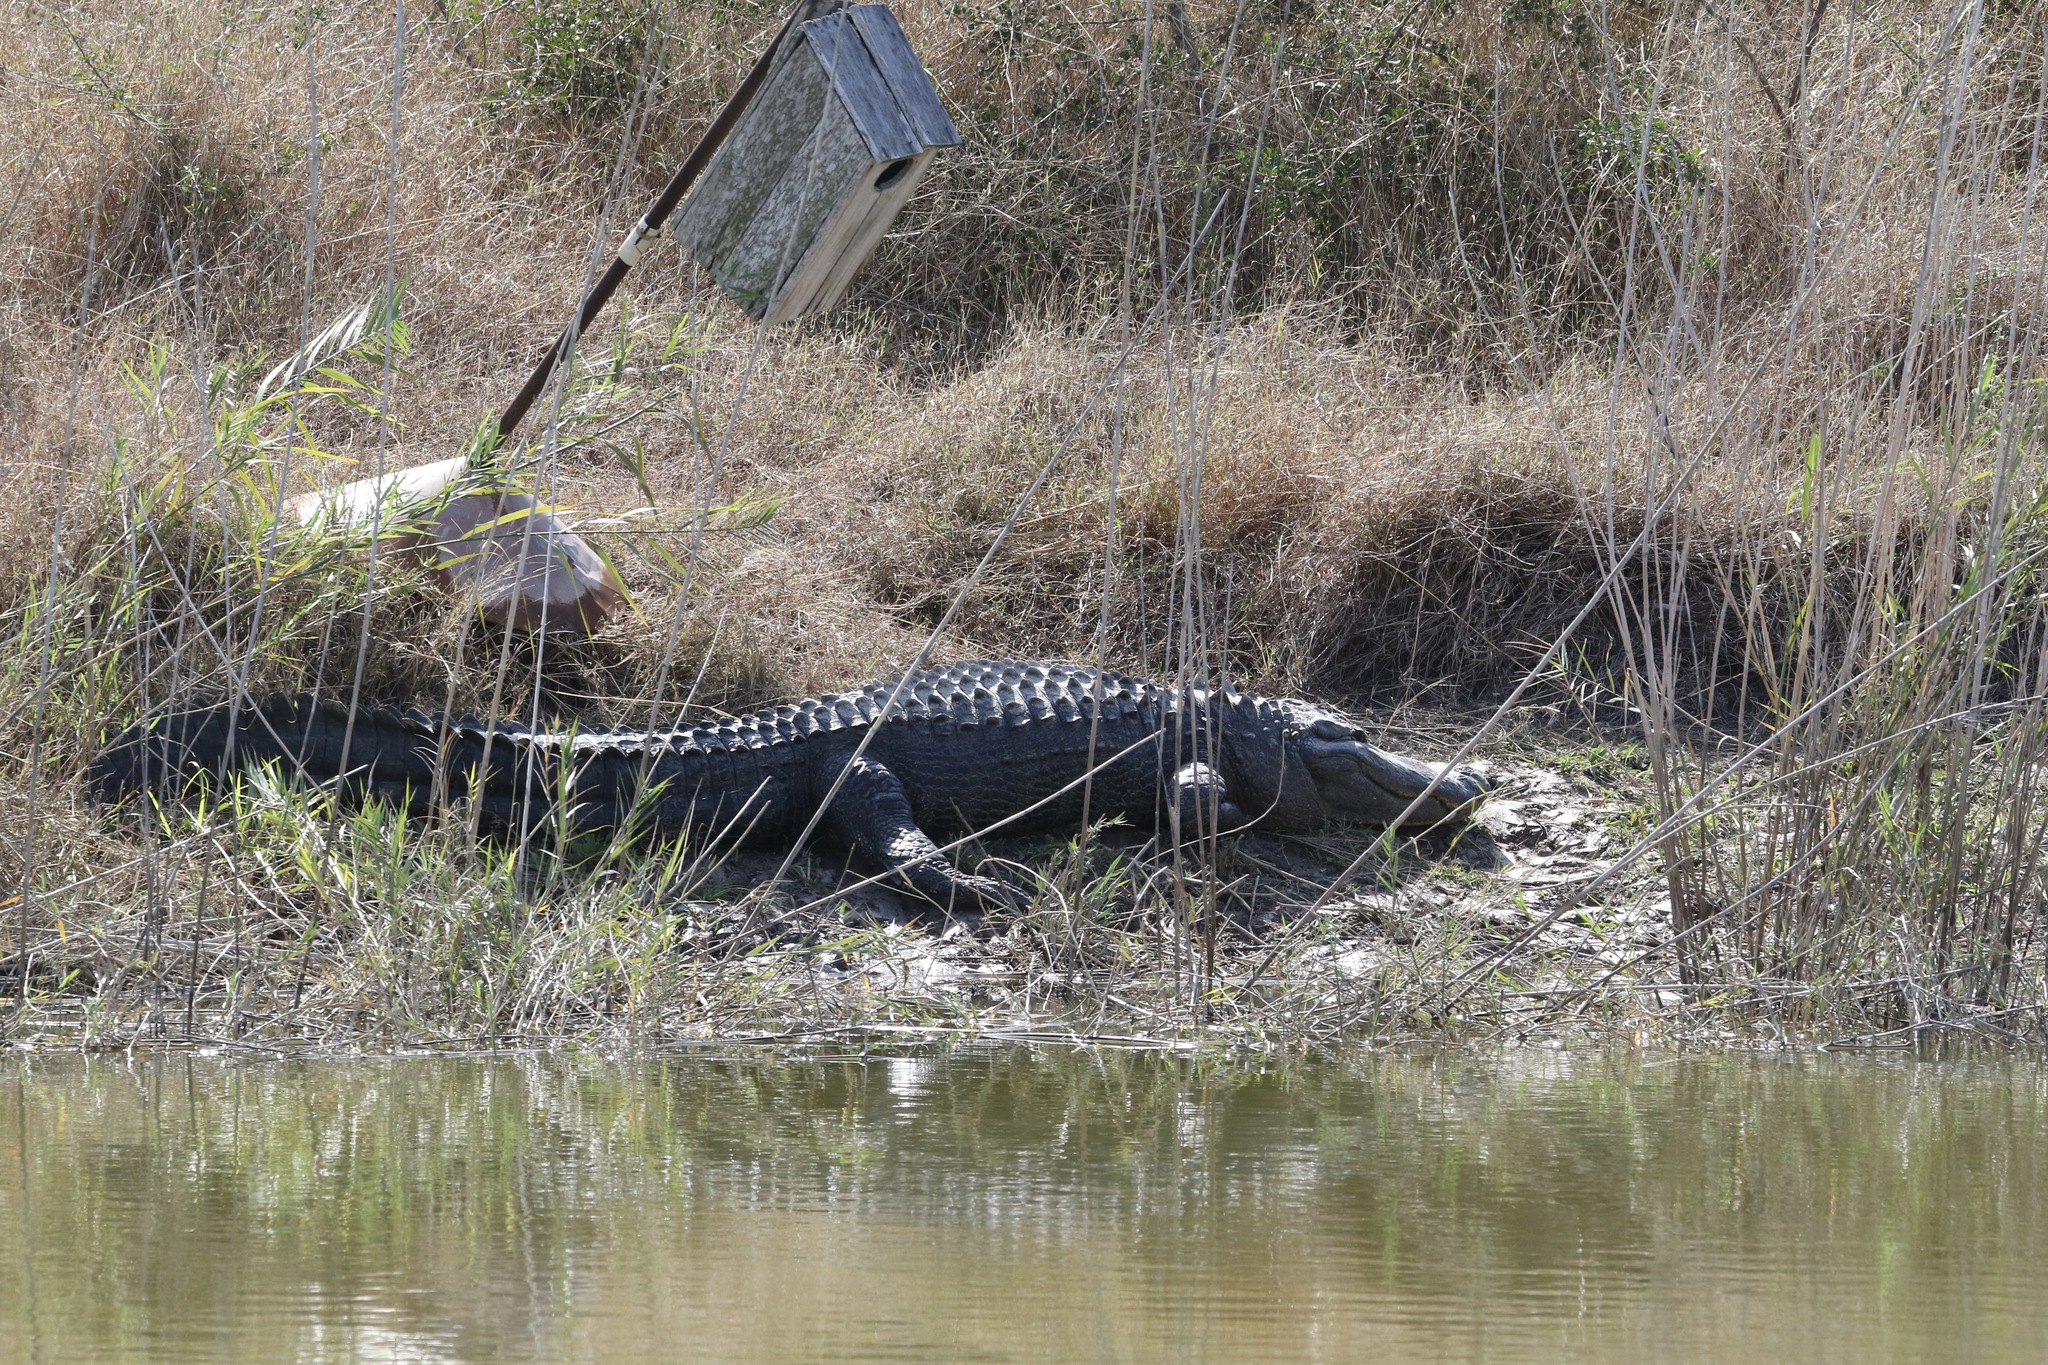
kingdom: Animalia
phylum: Chordata
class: Crocodylia
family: Alligatoridae
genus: Alligator
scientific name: Alligator mississippiensis
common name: American alligator
